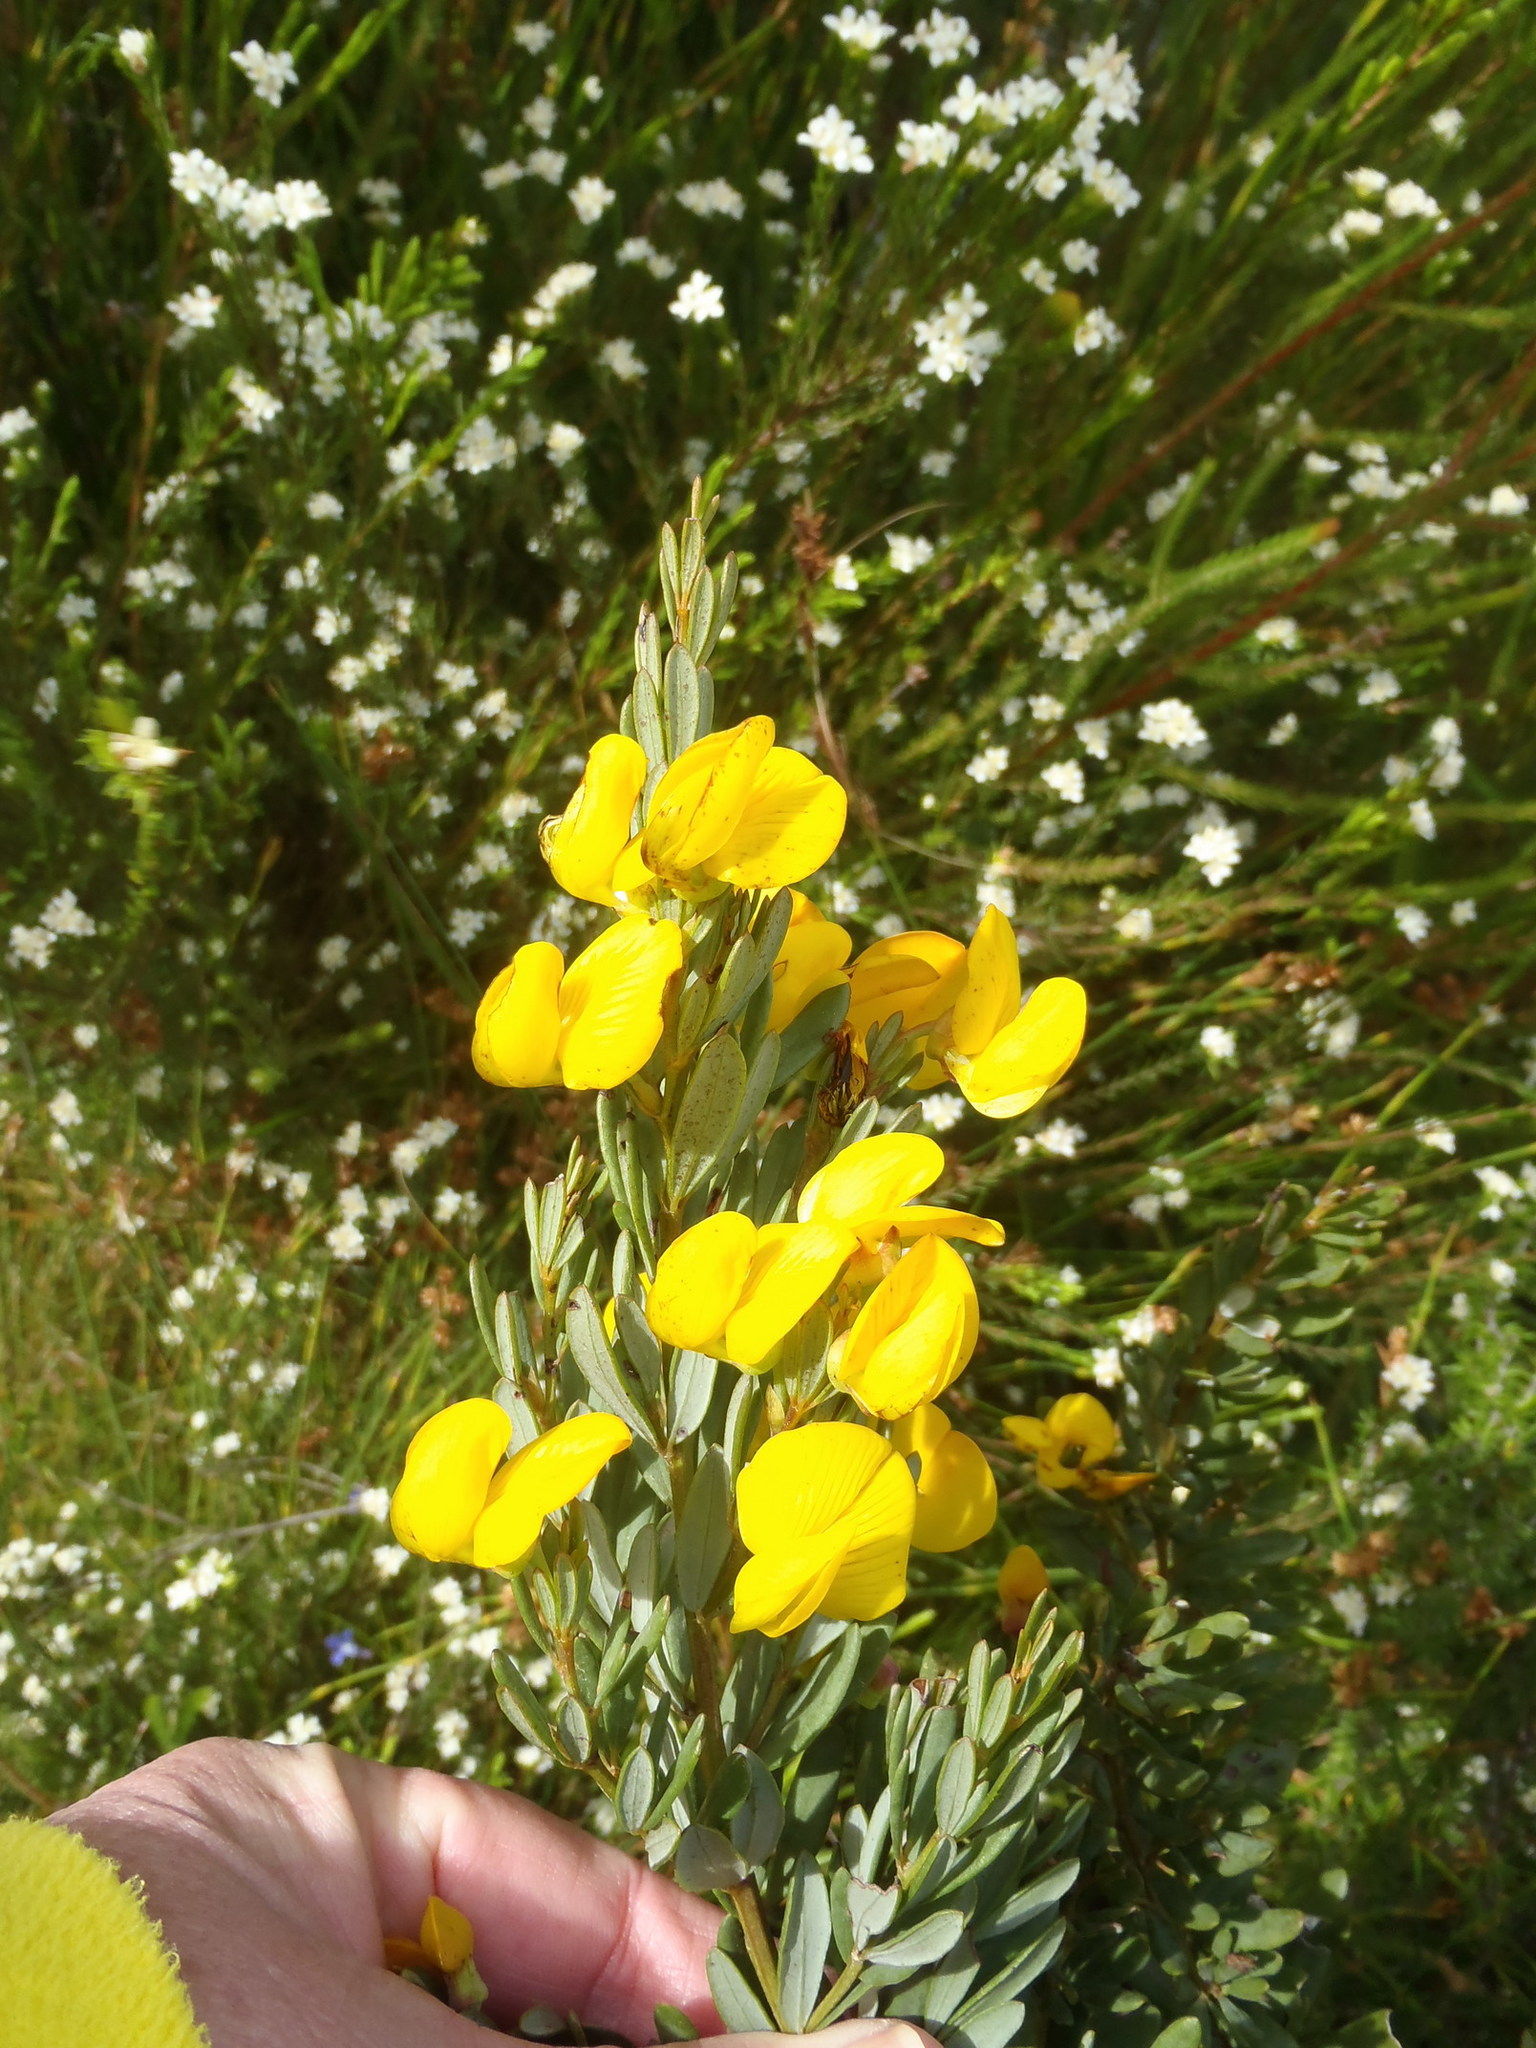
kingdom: Plantae
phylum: Tracheophyta
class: Magnoliopsida
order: Fabales
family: Fabaceae
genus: Cyclopia
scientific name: Cyclopia subternata
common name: Honeybush tea
